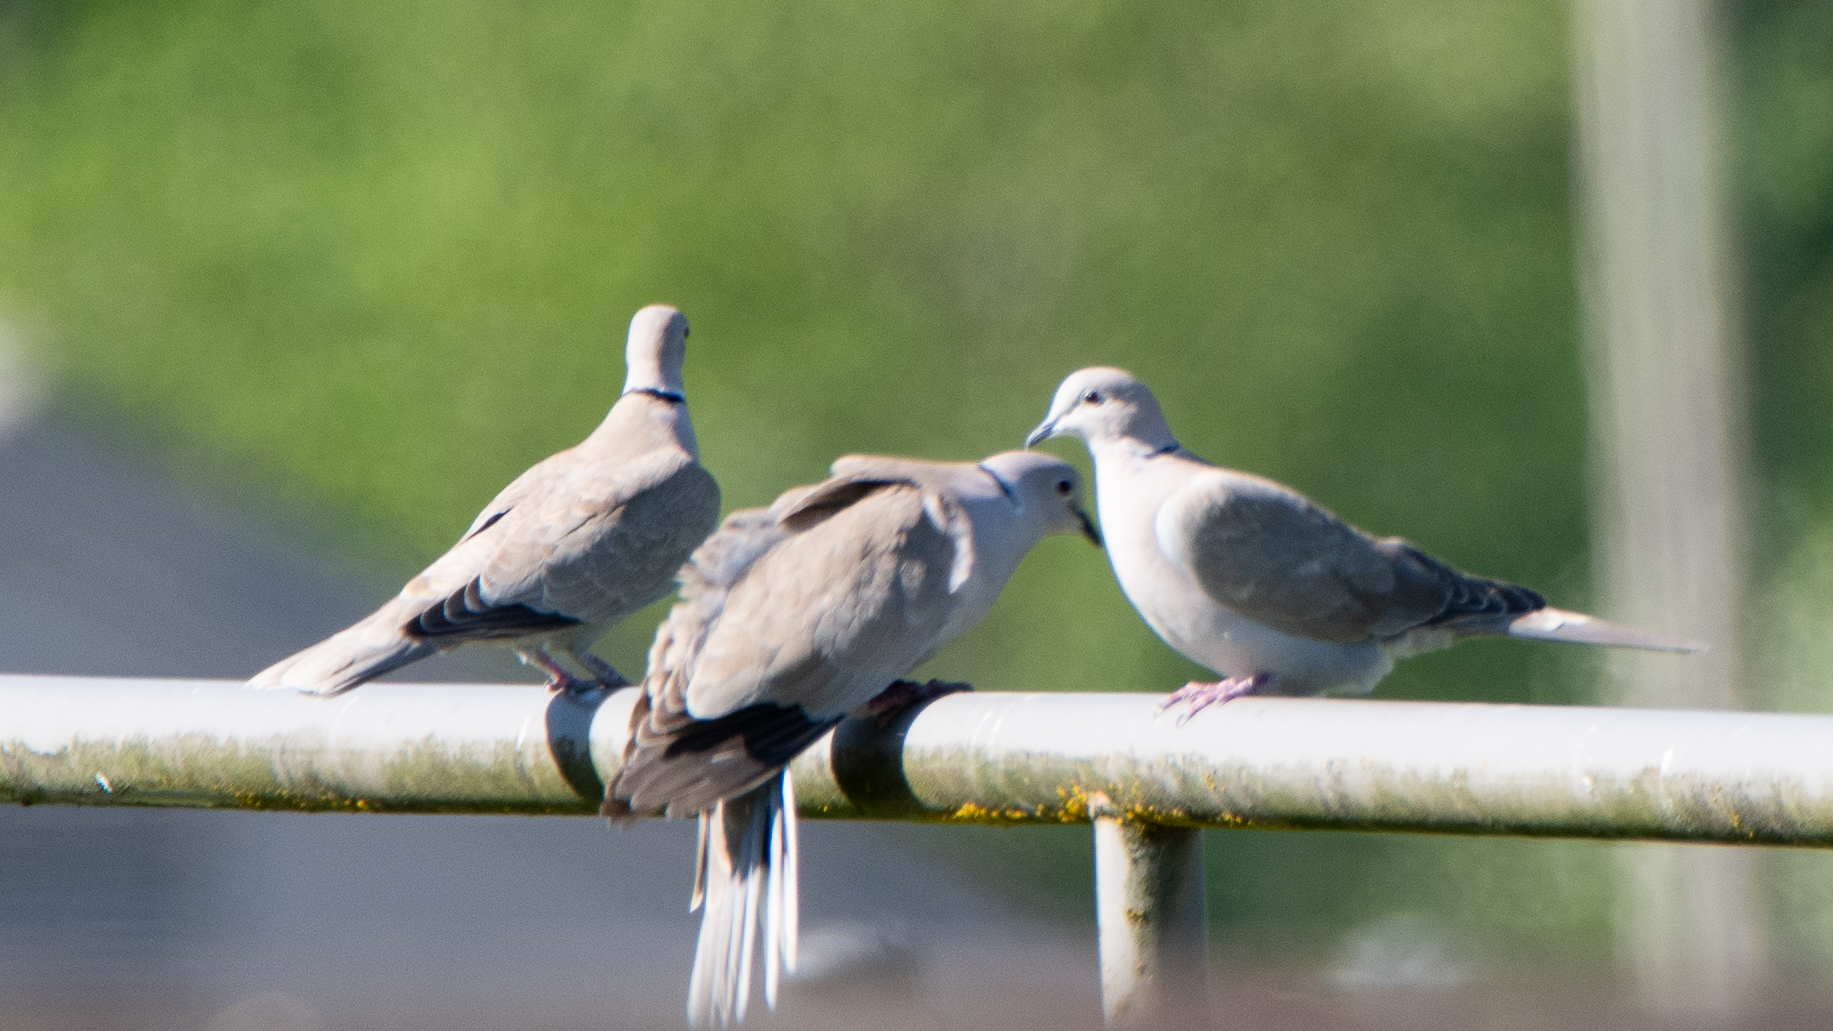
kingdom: Animalia
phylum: Chordata
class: Aves
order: Columbiformes
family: Columbidae
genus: Streptopelia
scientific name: Streptopelia decaocto
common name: Eurasian collared dove
